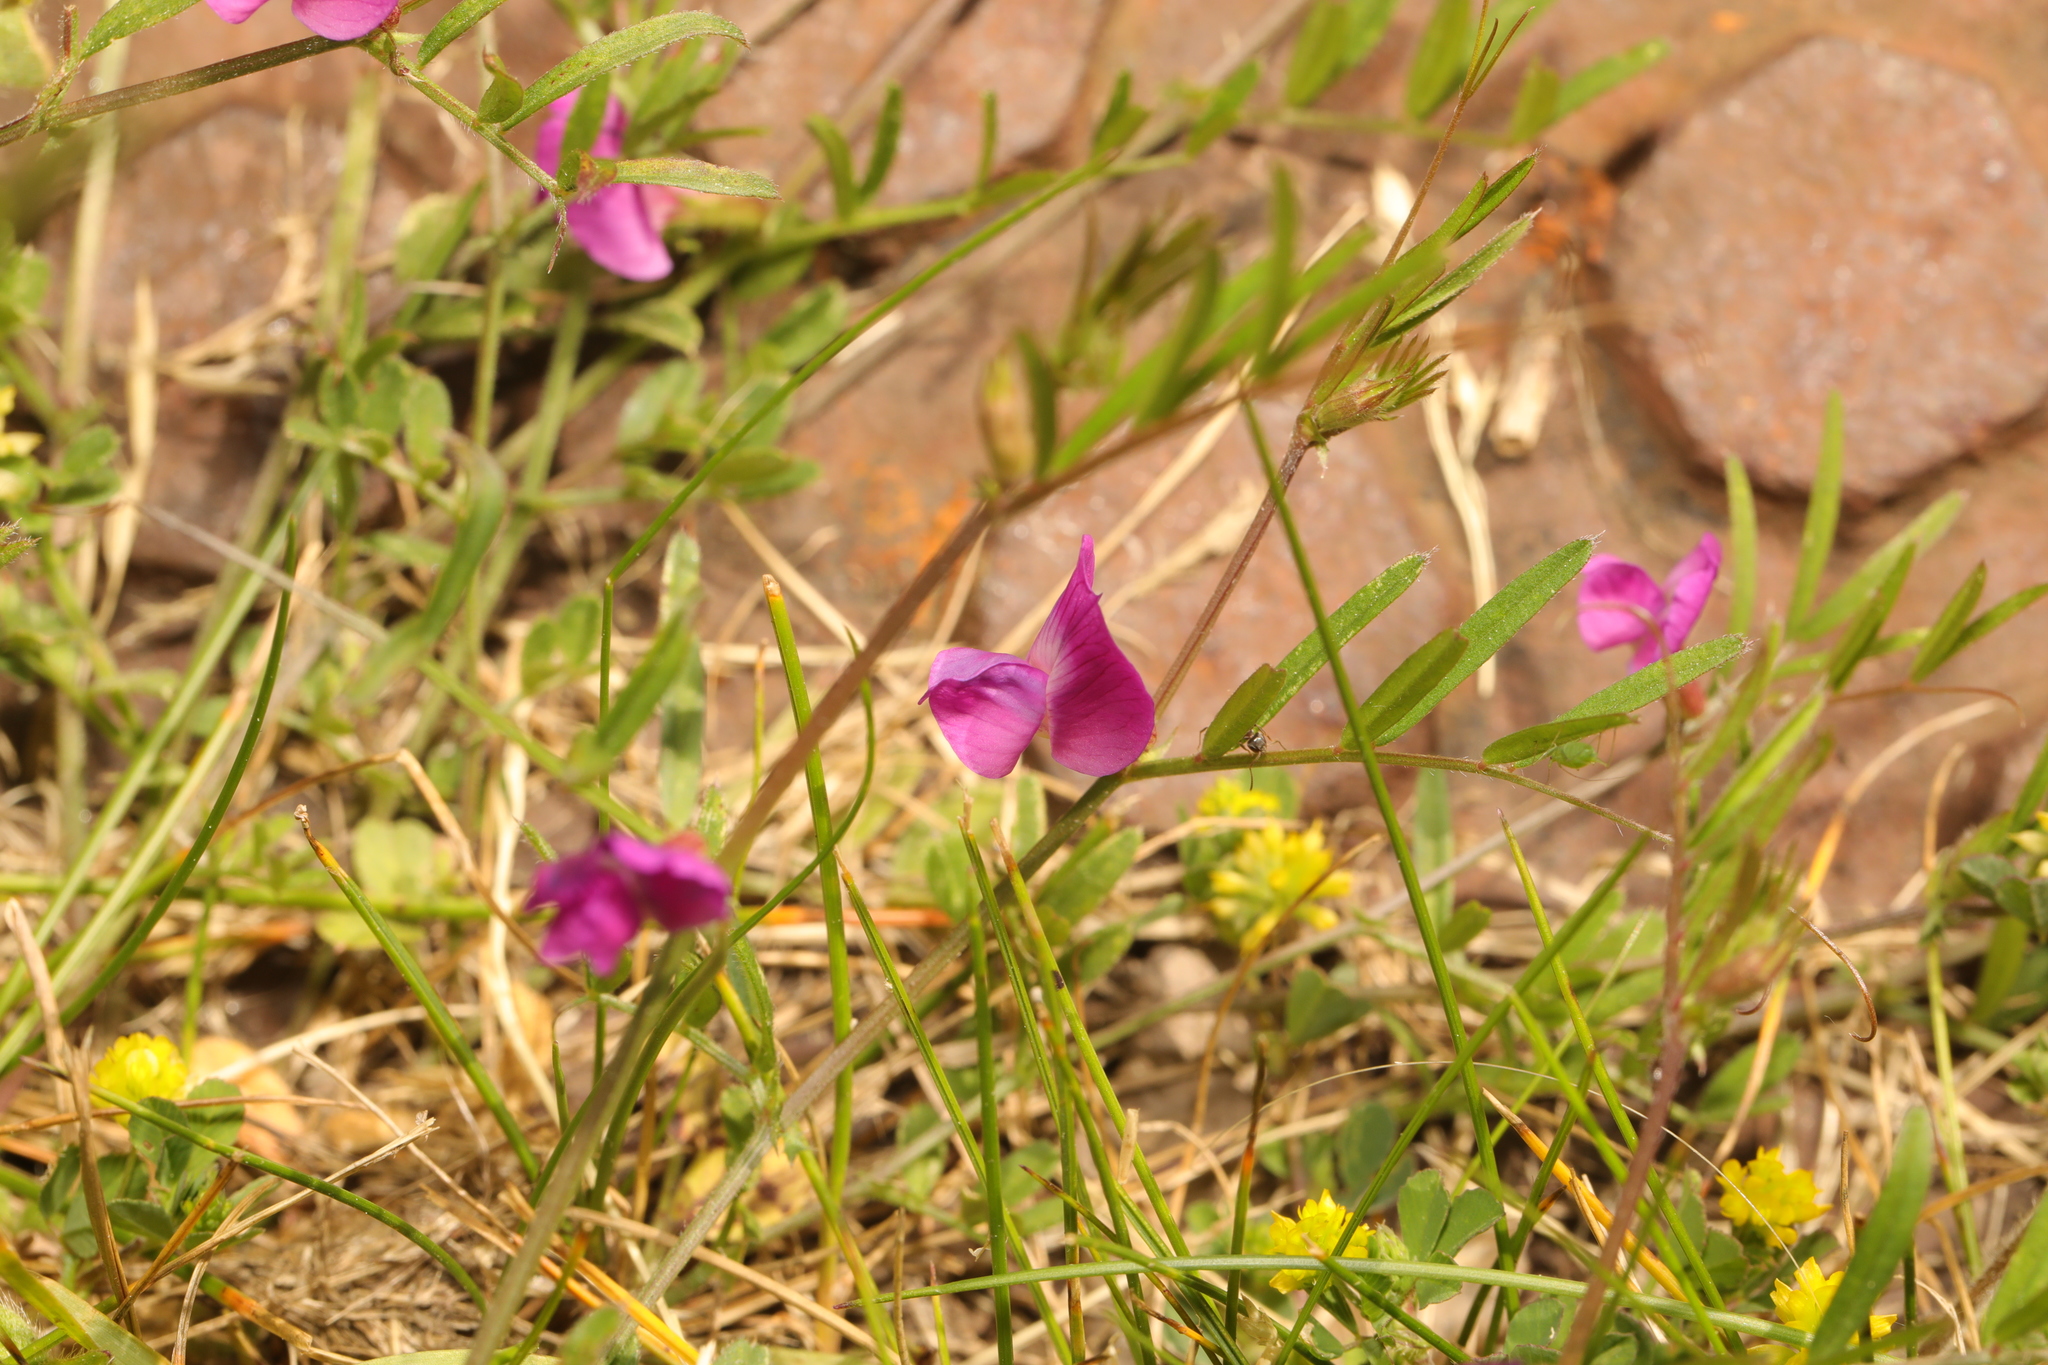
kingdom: Plantae
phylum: Tracheophyta
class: Magnoliopsida
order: Fabales
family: Fabaceae
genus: Vicia
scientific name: Vicia sativa
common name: Garden vetch
